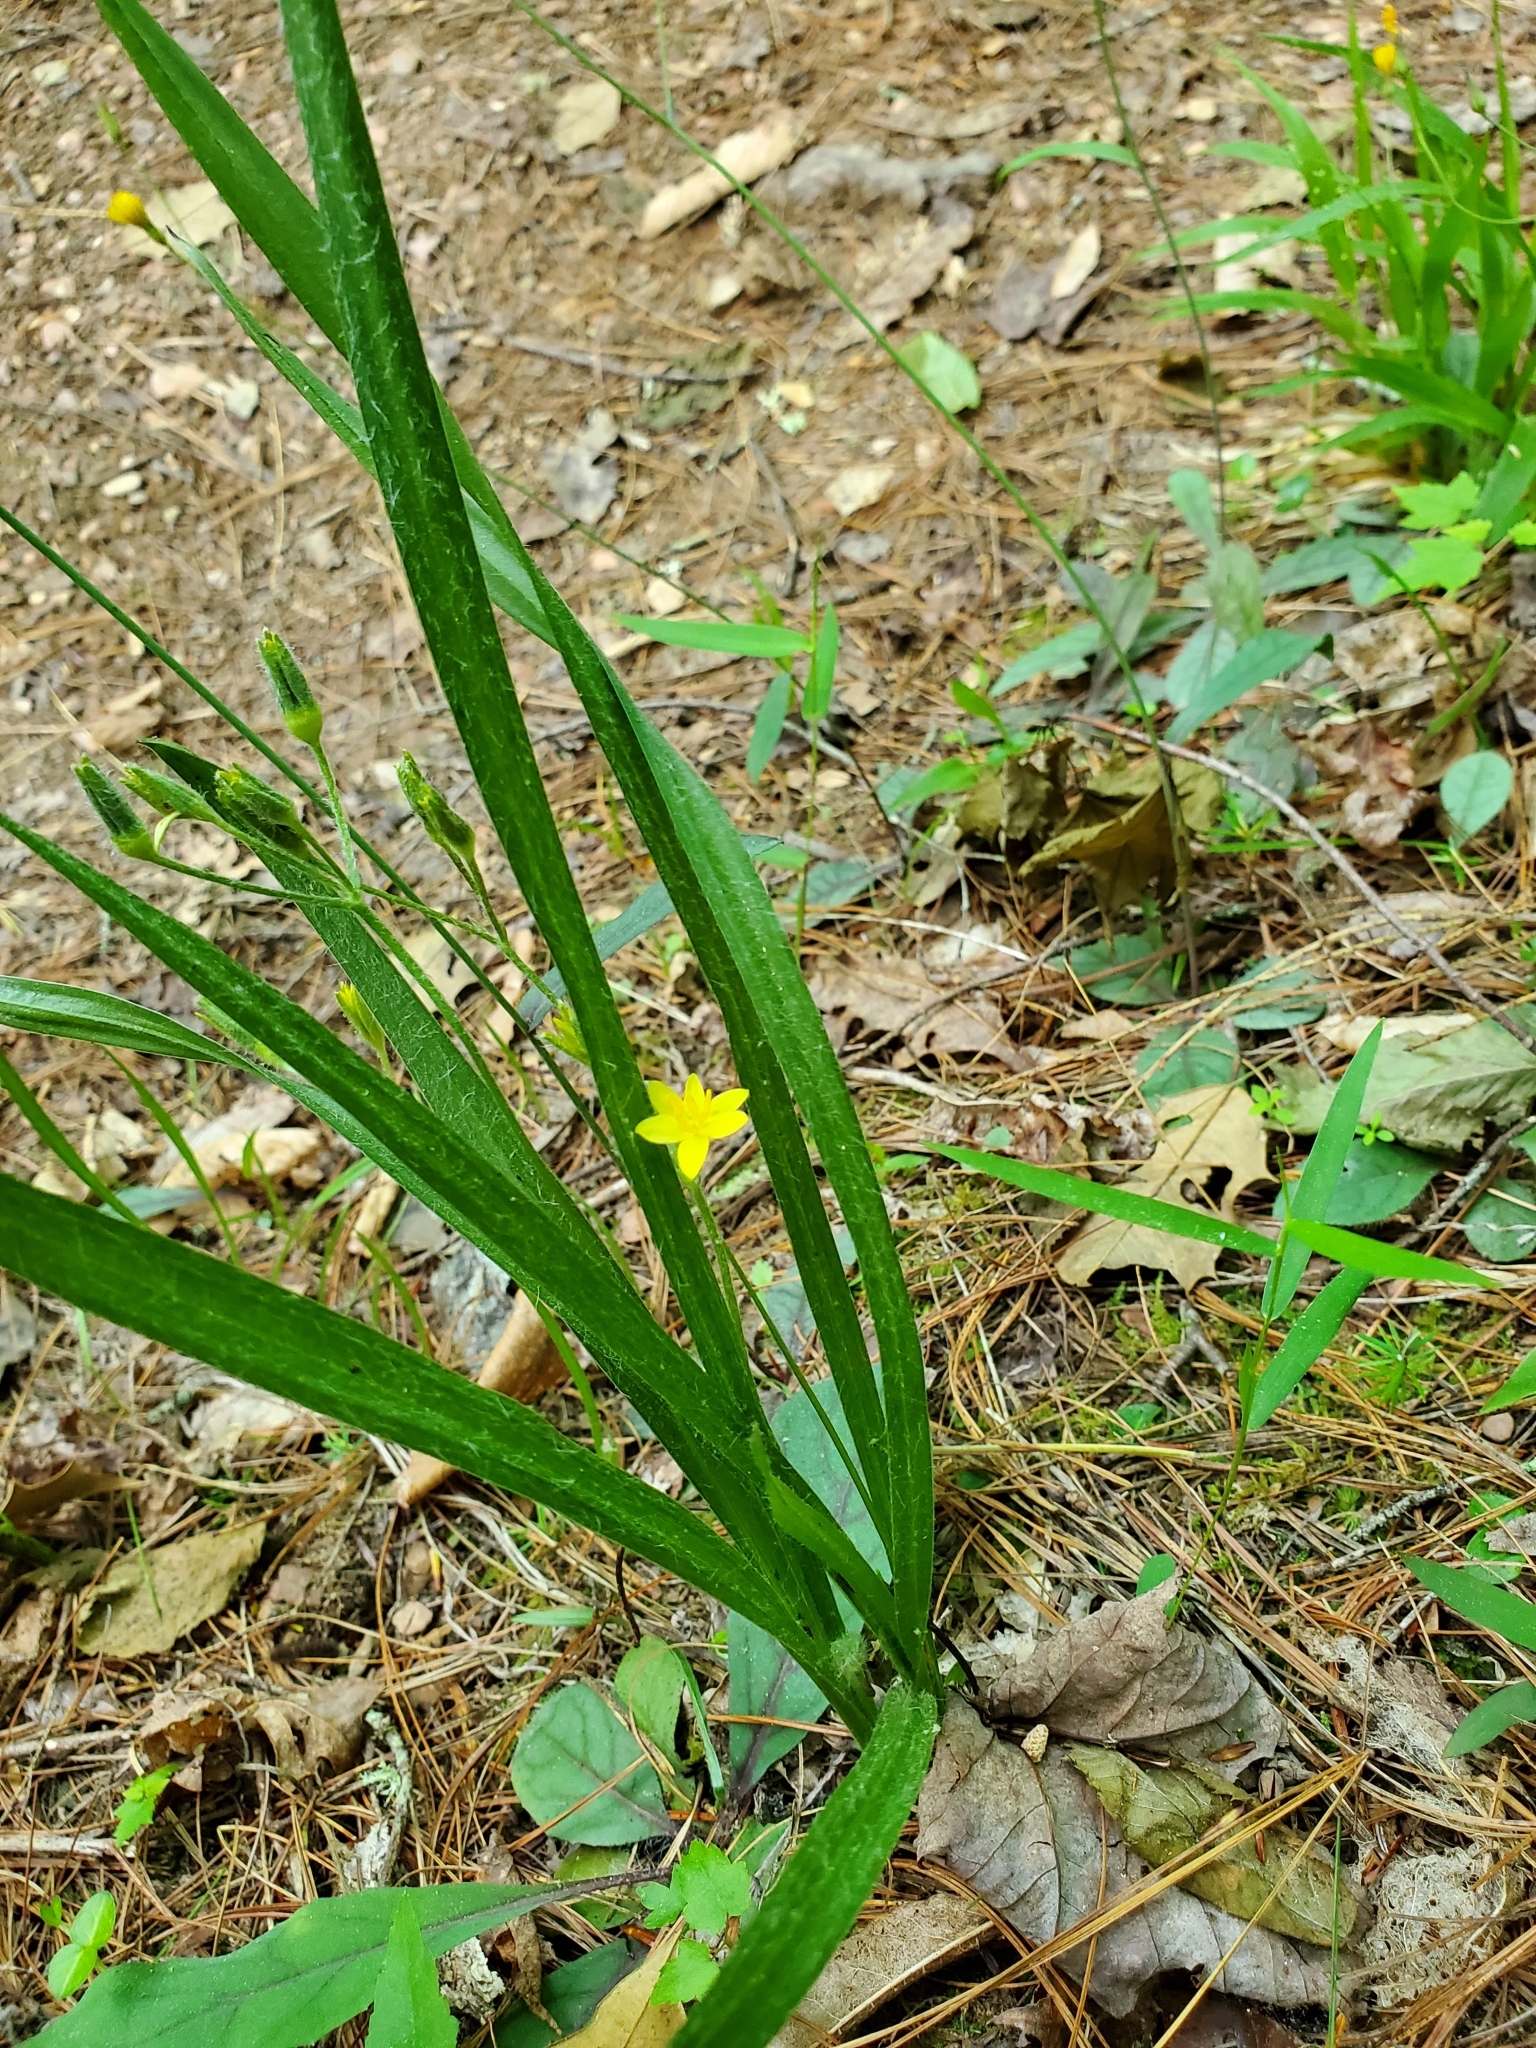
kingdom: Plantae
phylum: Tracheophyta
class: Liliopsida
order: Asparagales
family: Hypoxidaceae
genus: Hypoxis
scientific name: Hypoxis hirsuta
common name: Common goldstar
